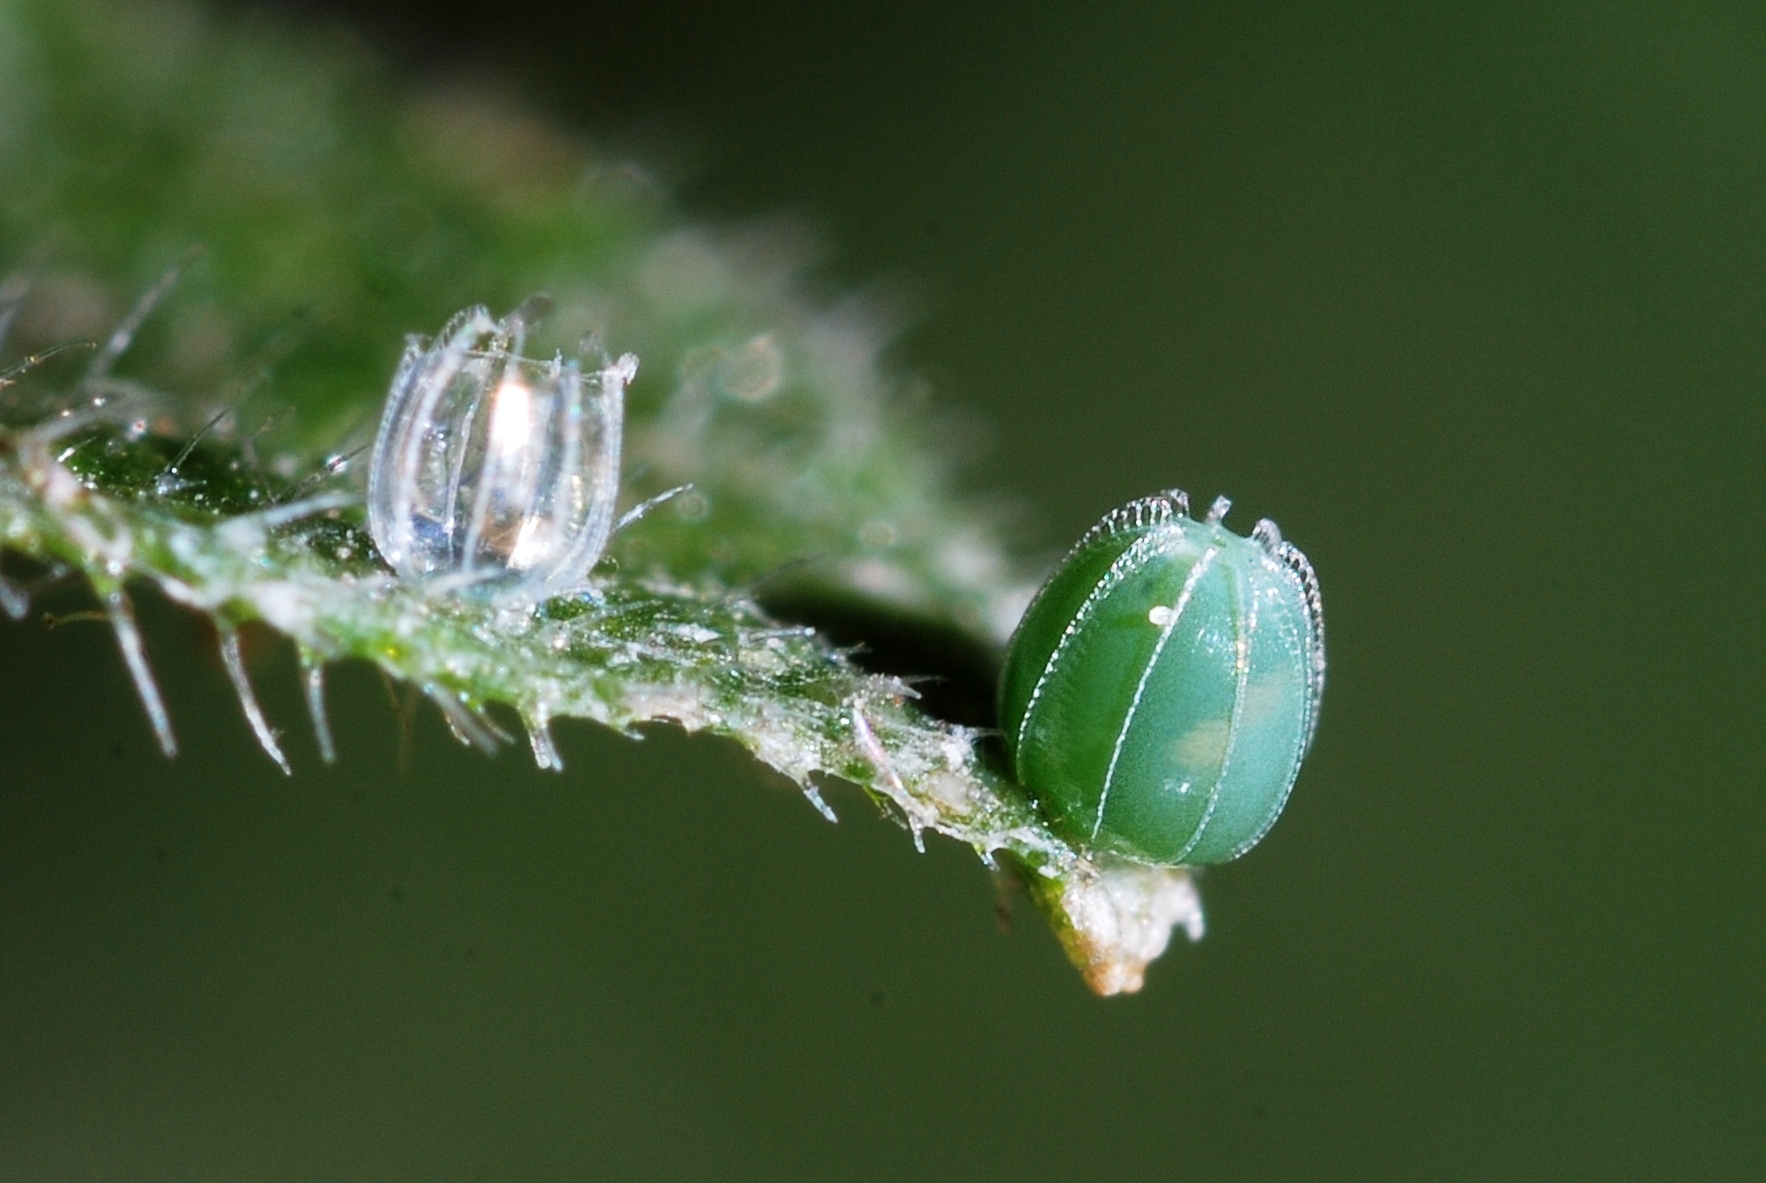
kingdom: Animalia
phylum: Arthropoda
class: Insecta
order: Lepidoptera
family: Nymphalidae
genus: Polygonia
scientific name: Polygonia c-album
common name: Comma
